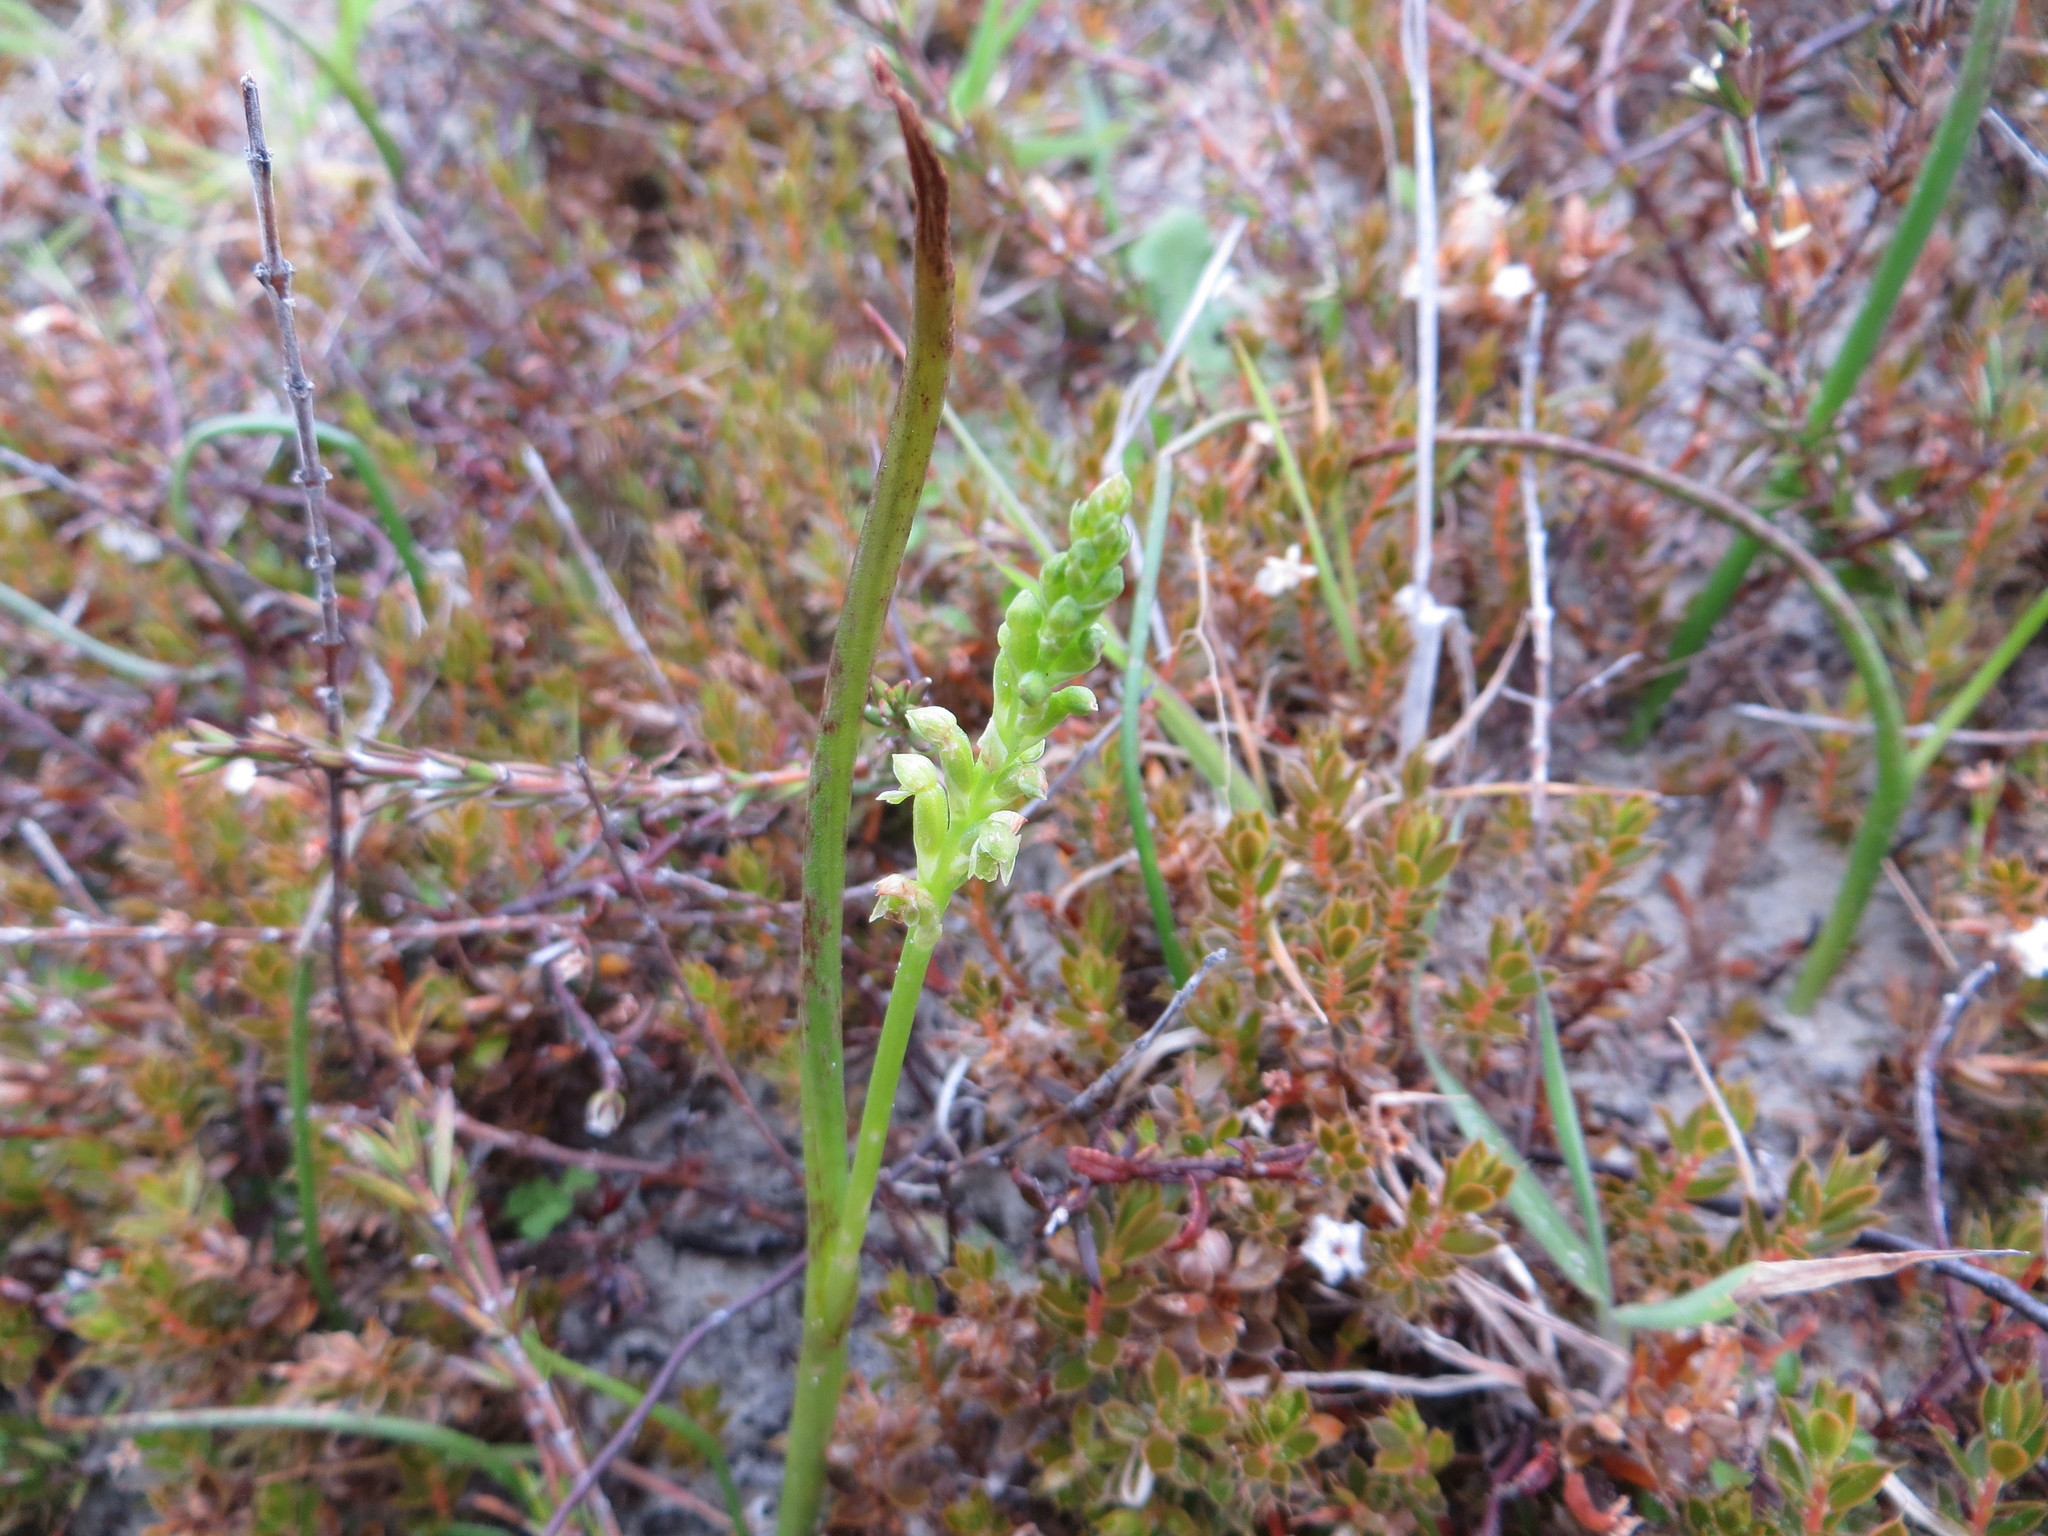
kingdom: Plantae
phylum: Tracheophyta
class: Liliopsida
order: Asparagales
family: Orchidaceae
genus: Microtis
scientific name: Microtis unifolia
